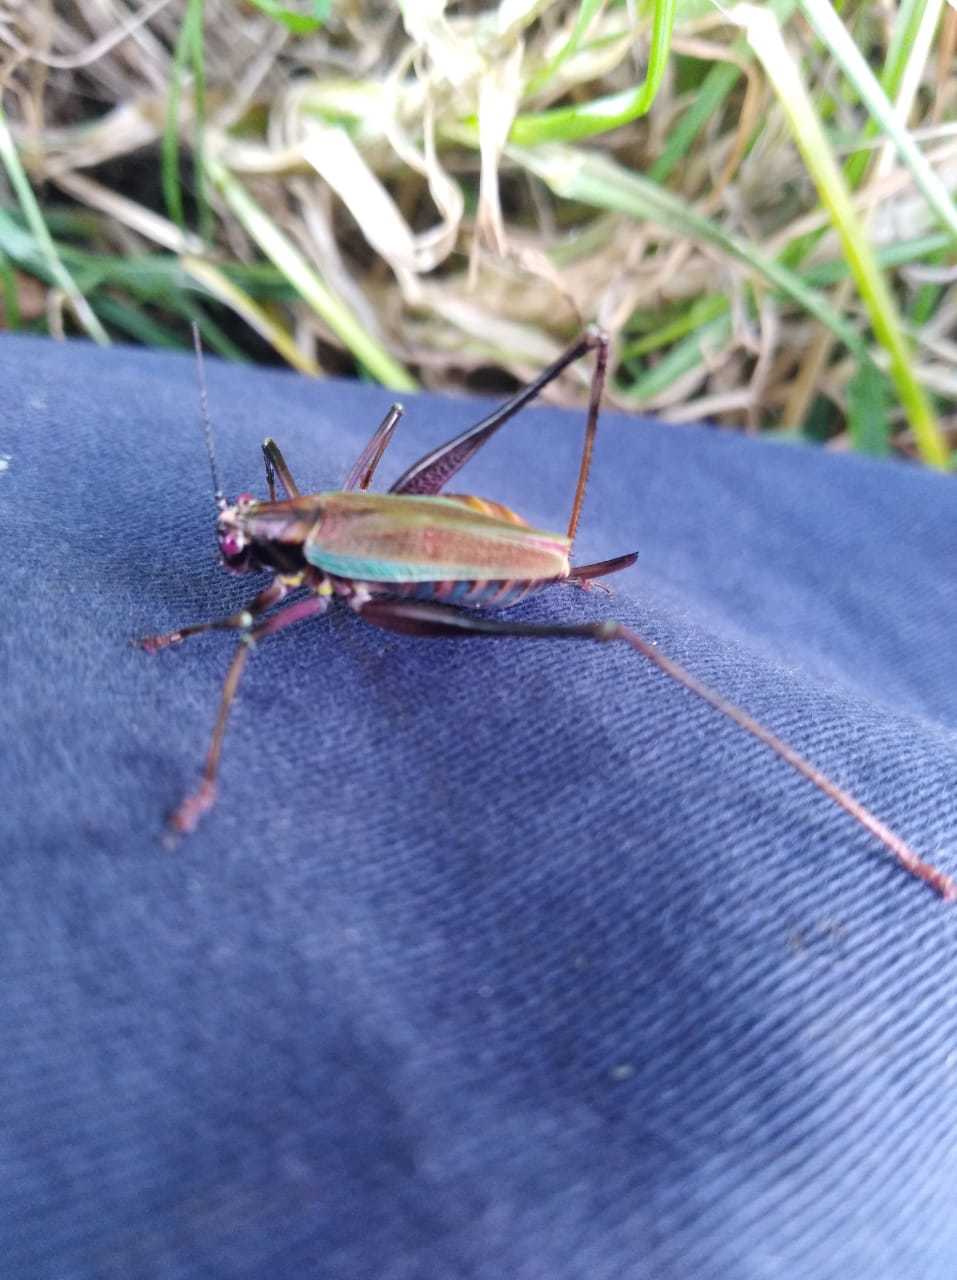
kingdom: Animalia
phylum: Arthropoda
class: Insecta
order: Orthoptera
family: Tettigoniidae
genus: Stenophyllia
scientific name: Stenophyllia modesta
